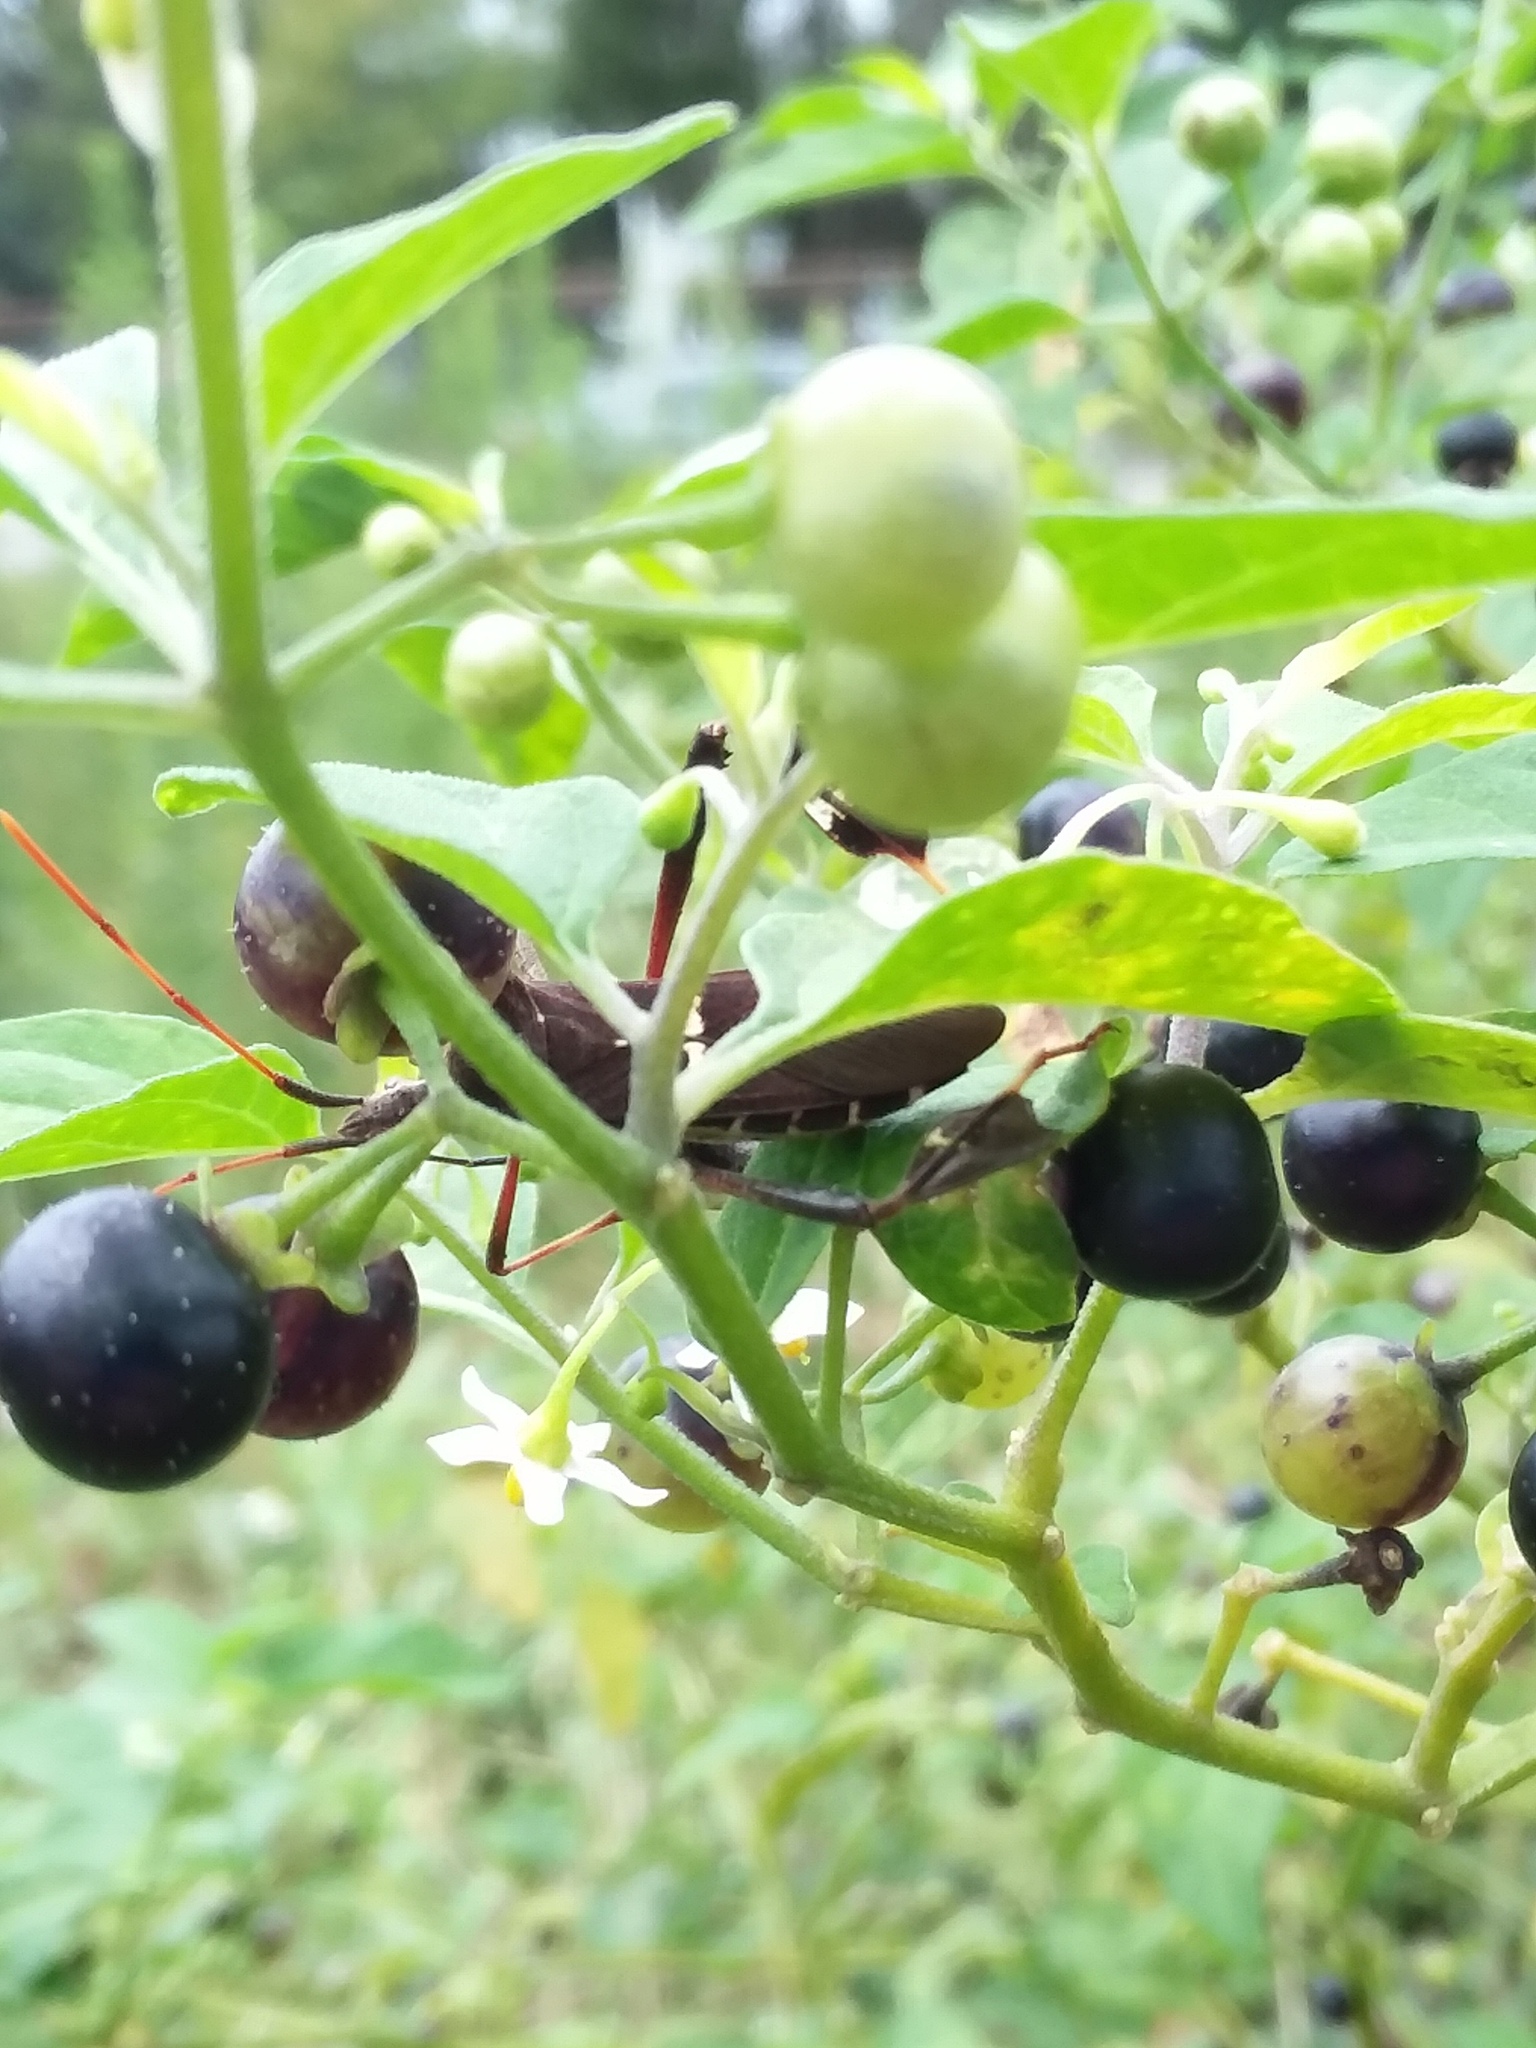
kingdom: Animalia
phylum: Arthropoda
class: Insecta
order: Hemiptera
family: Coreidae
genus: Leptoglossus
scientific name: Leptoglossus phyllopus
